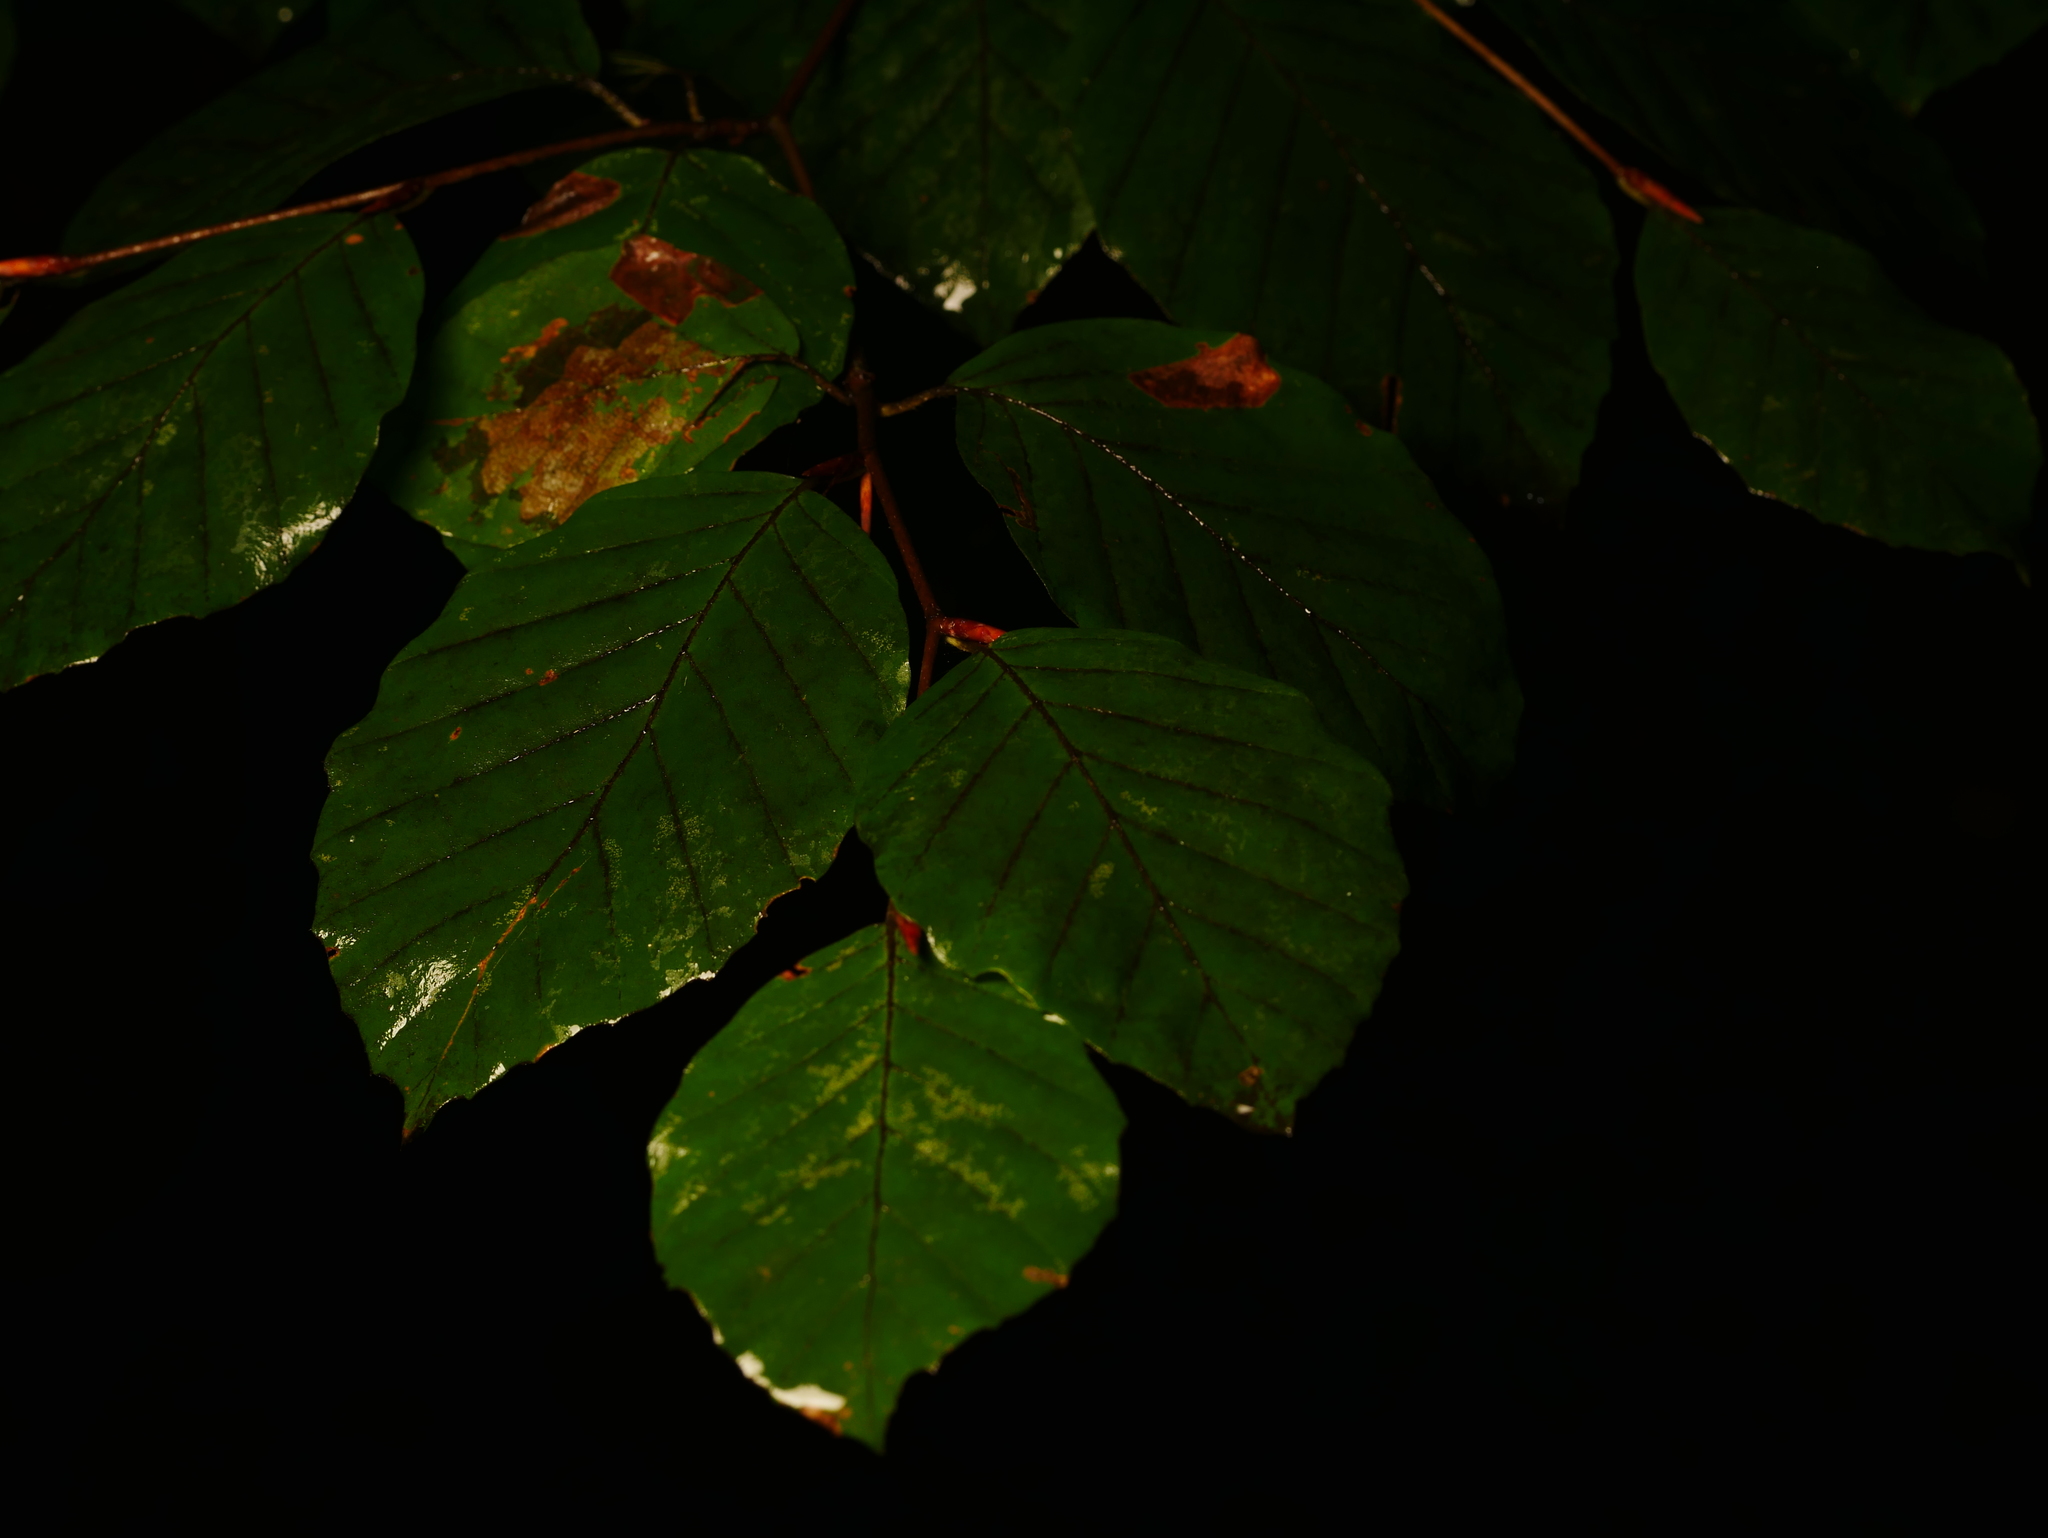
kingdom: Plantae
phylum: Tracheophyta
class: Magnoliopsida
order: Fagales
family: Fagaceae
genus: Fagus
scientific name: Fagus sylvatica
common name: Beech
